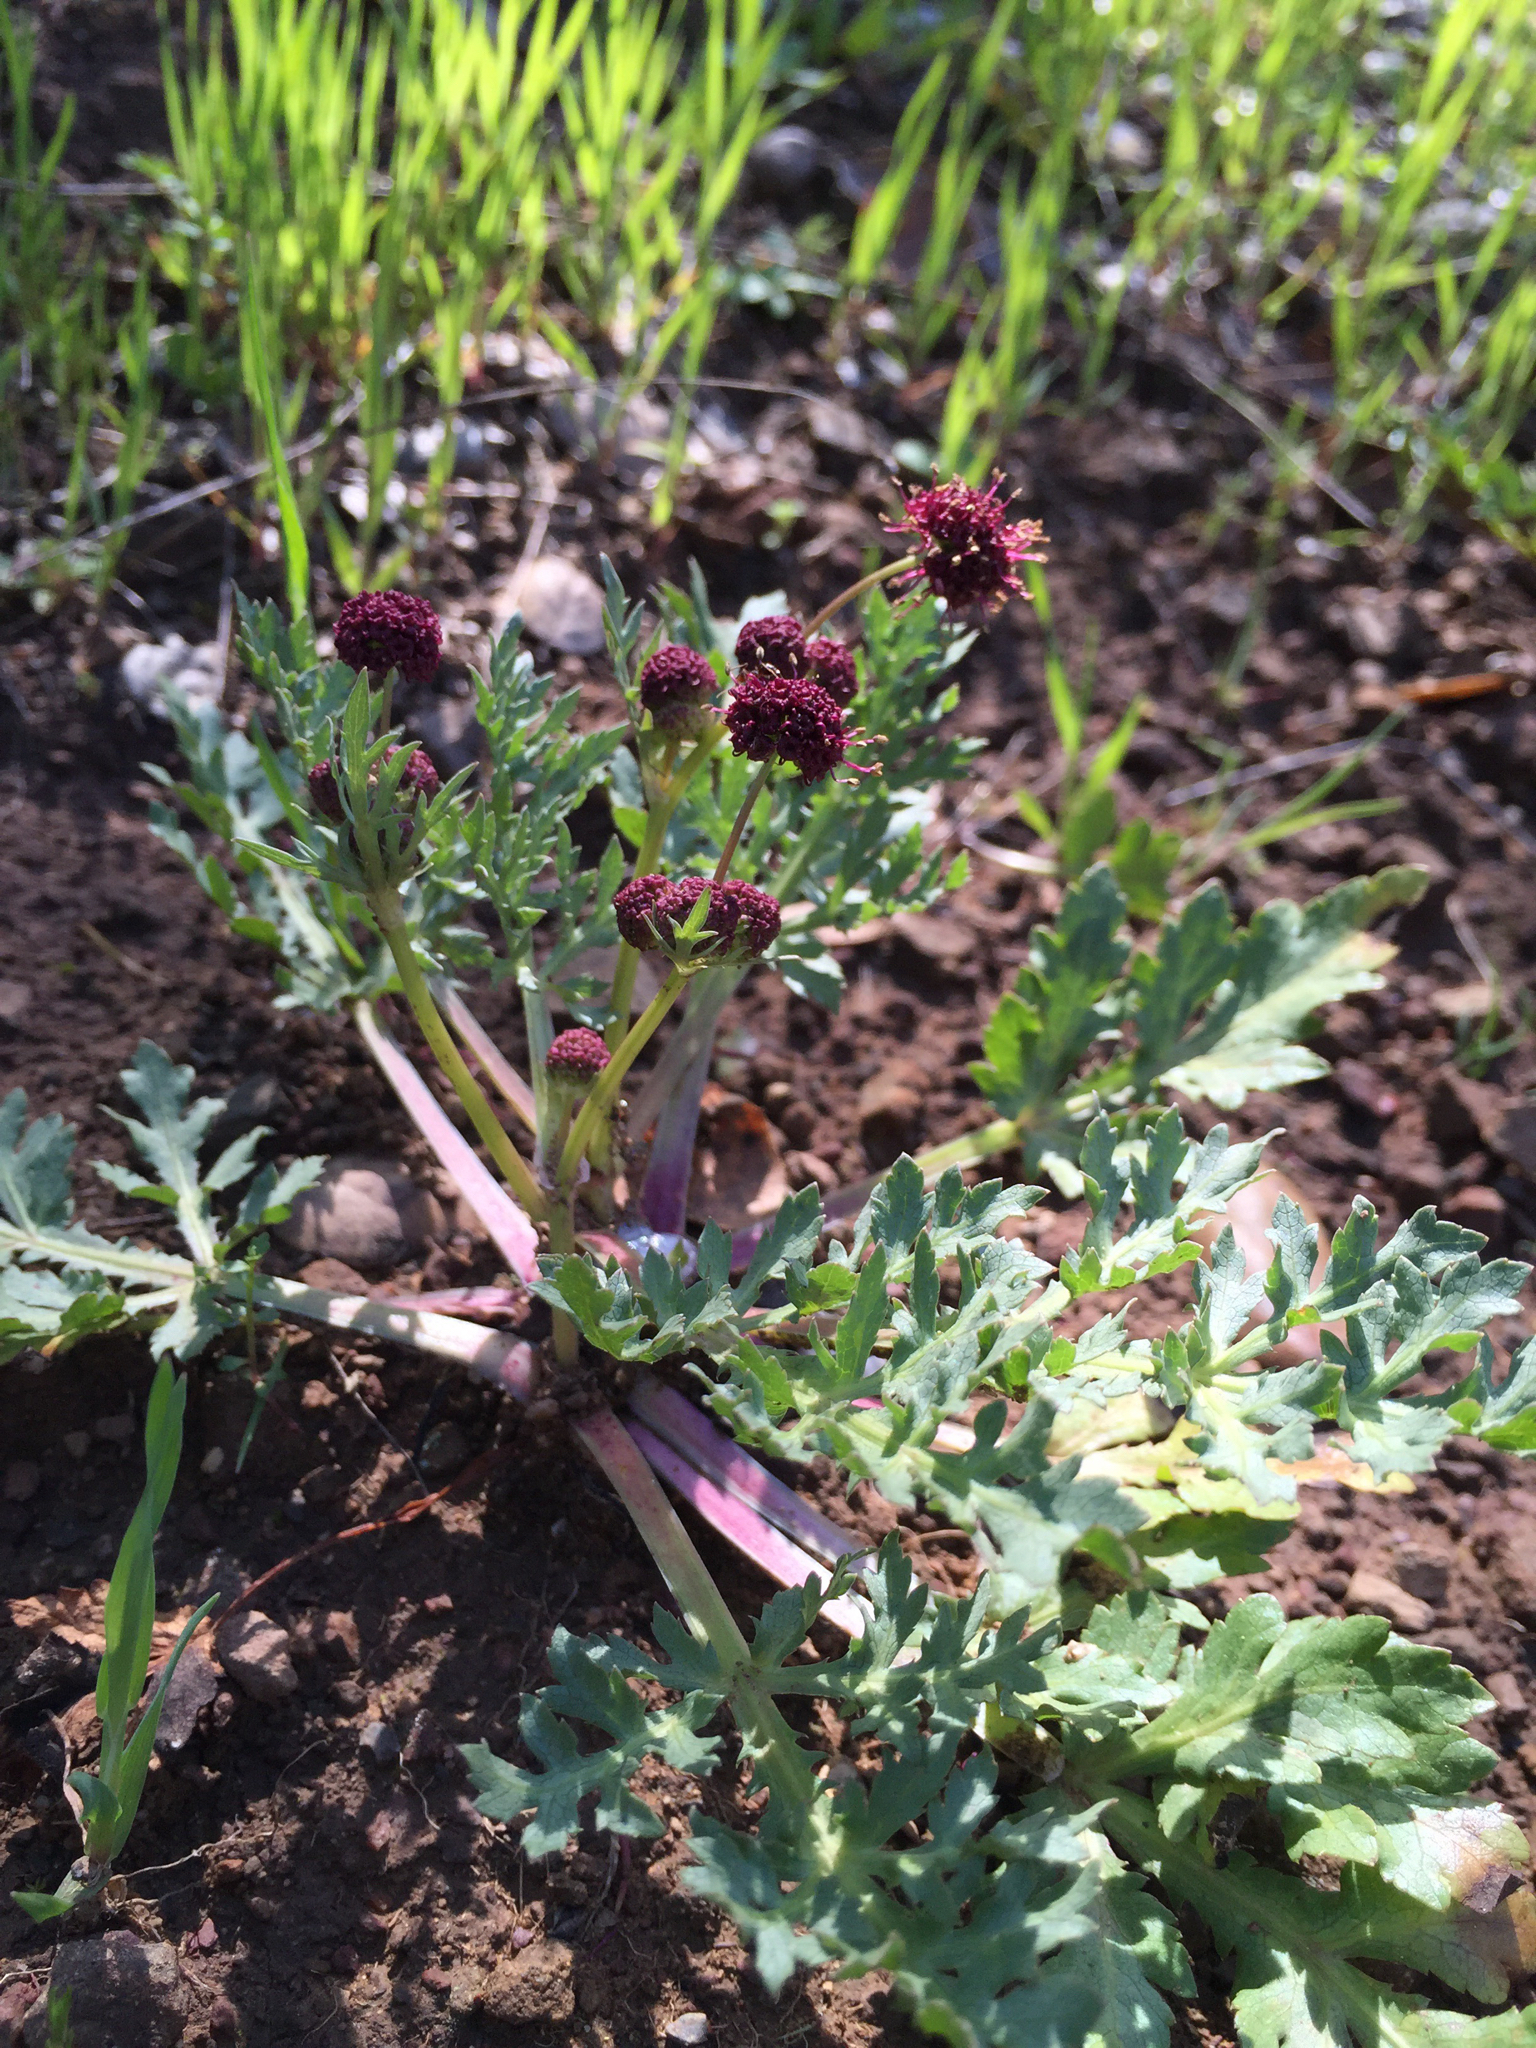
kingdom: Plantae
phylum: Tracheophyta
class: Magnoliopsida
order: Apiales
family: Apiaceae
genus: Sanicula
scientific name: Sanicula bipinnatifida
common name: Shoe-buttons
